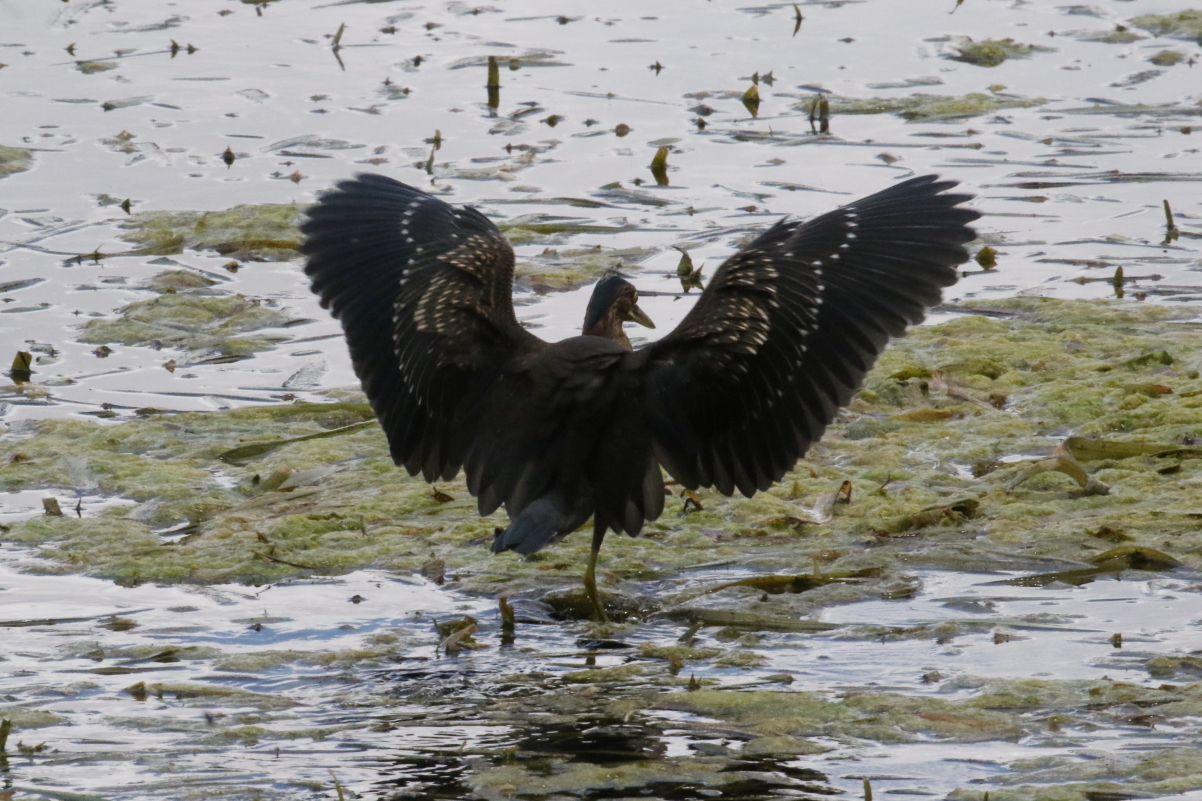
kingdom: Animalia
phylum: Chordata
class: Aves
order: Pelecaniformes
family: Ardeidae
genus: Butorides
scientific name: Butorides virescens
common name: Green heron
